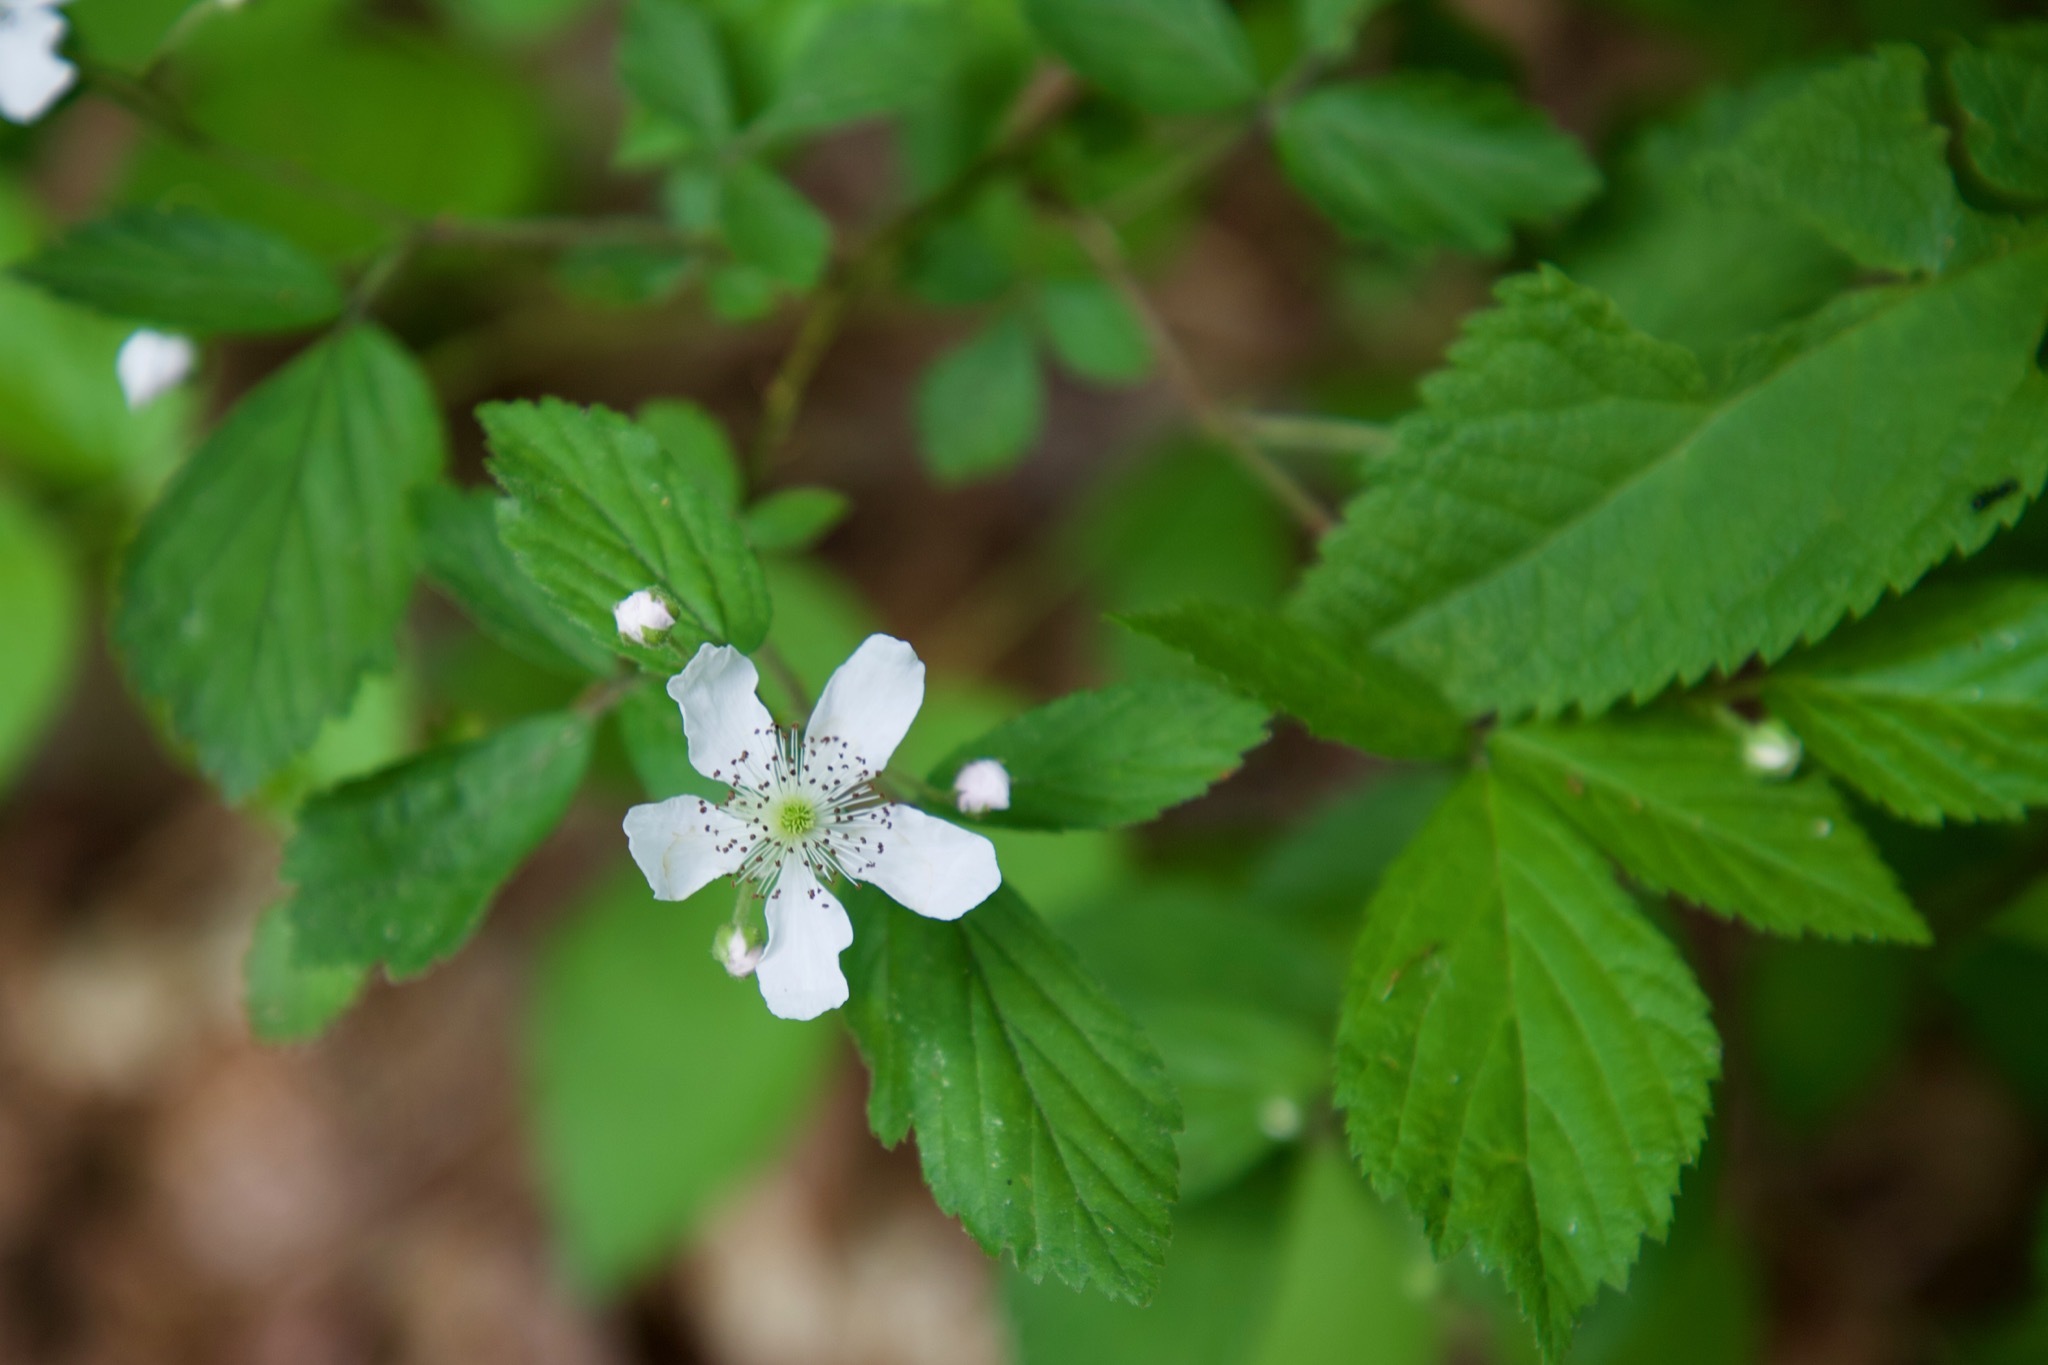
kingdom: Plantae
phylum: Tracheophyta
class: Magnoliopsida
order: Rosales
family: Rosaceae
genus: Rubus
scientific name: Rubus flagellaris
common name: American dewberry
